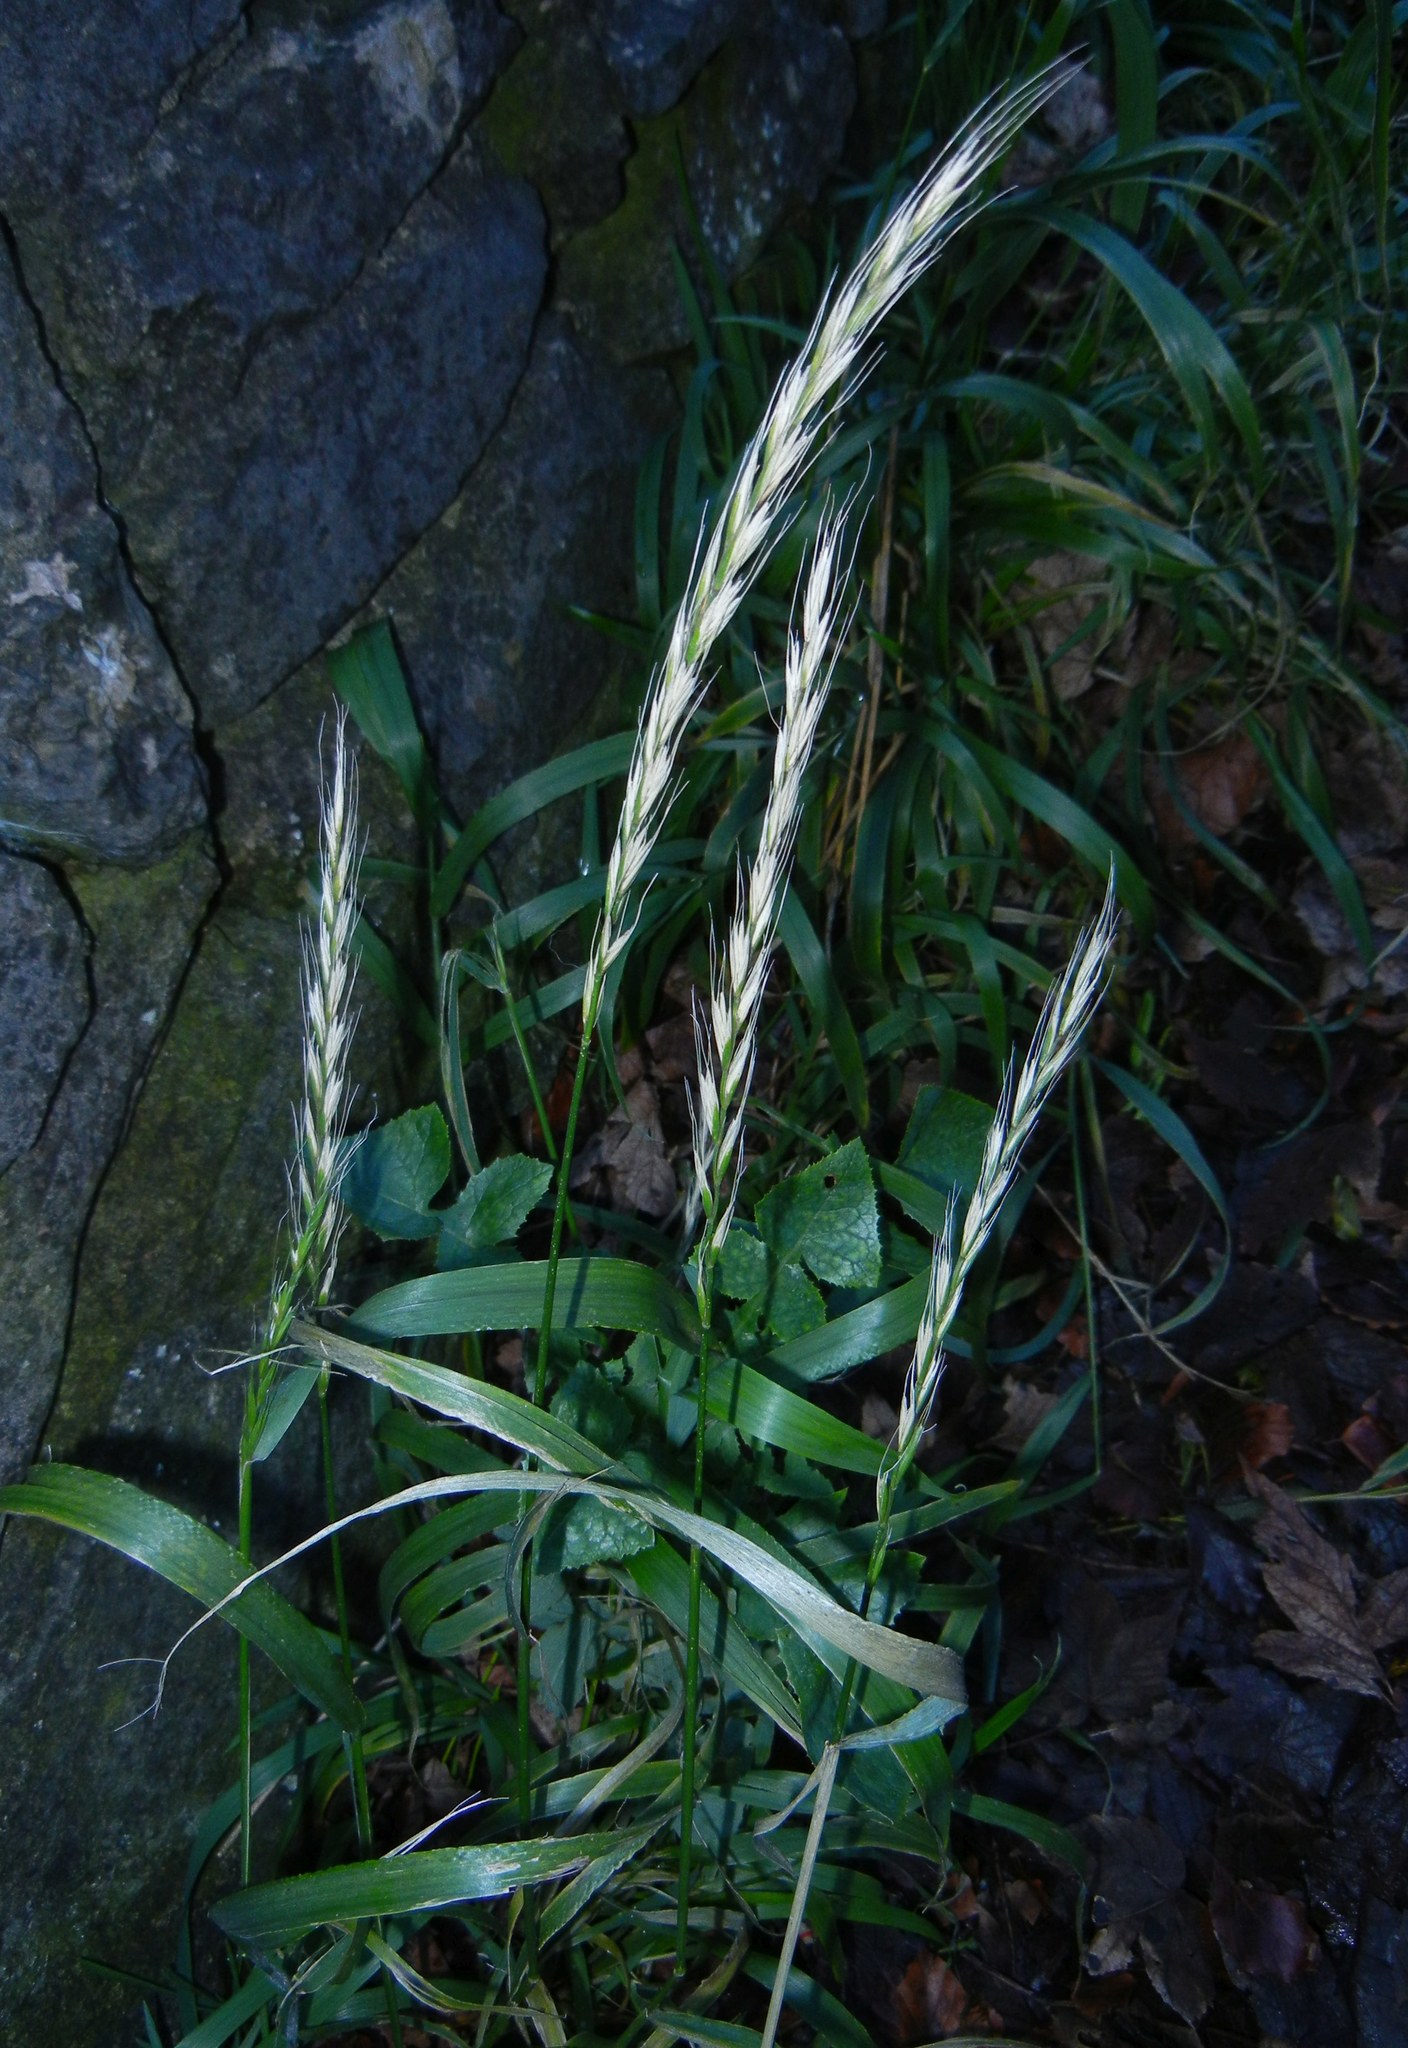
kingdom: Plantae
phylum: Tracheophyta
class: Liliopsida
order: Poales
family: Poaceae
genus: Elymus
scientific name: Elymus caninus
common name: Bearded couch
